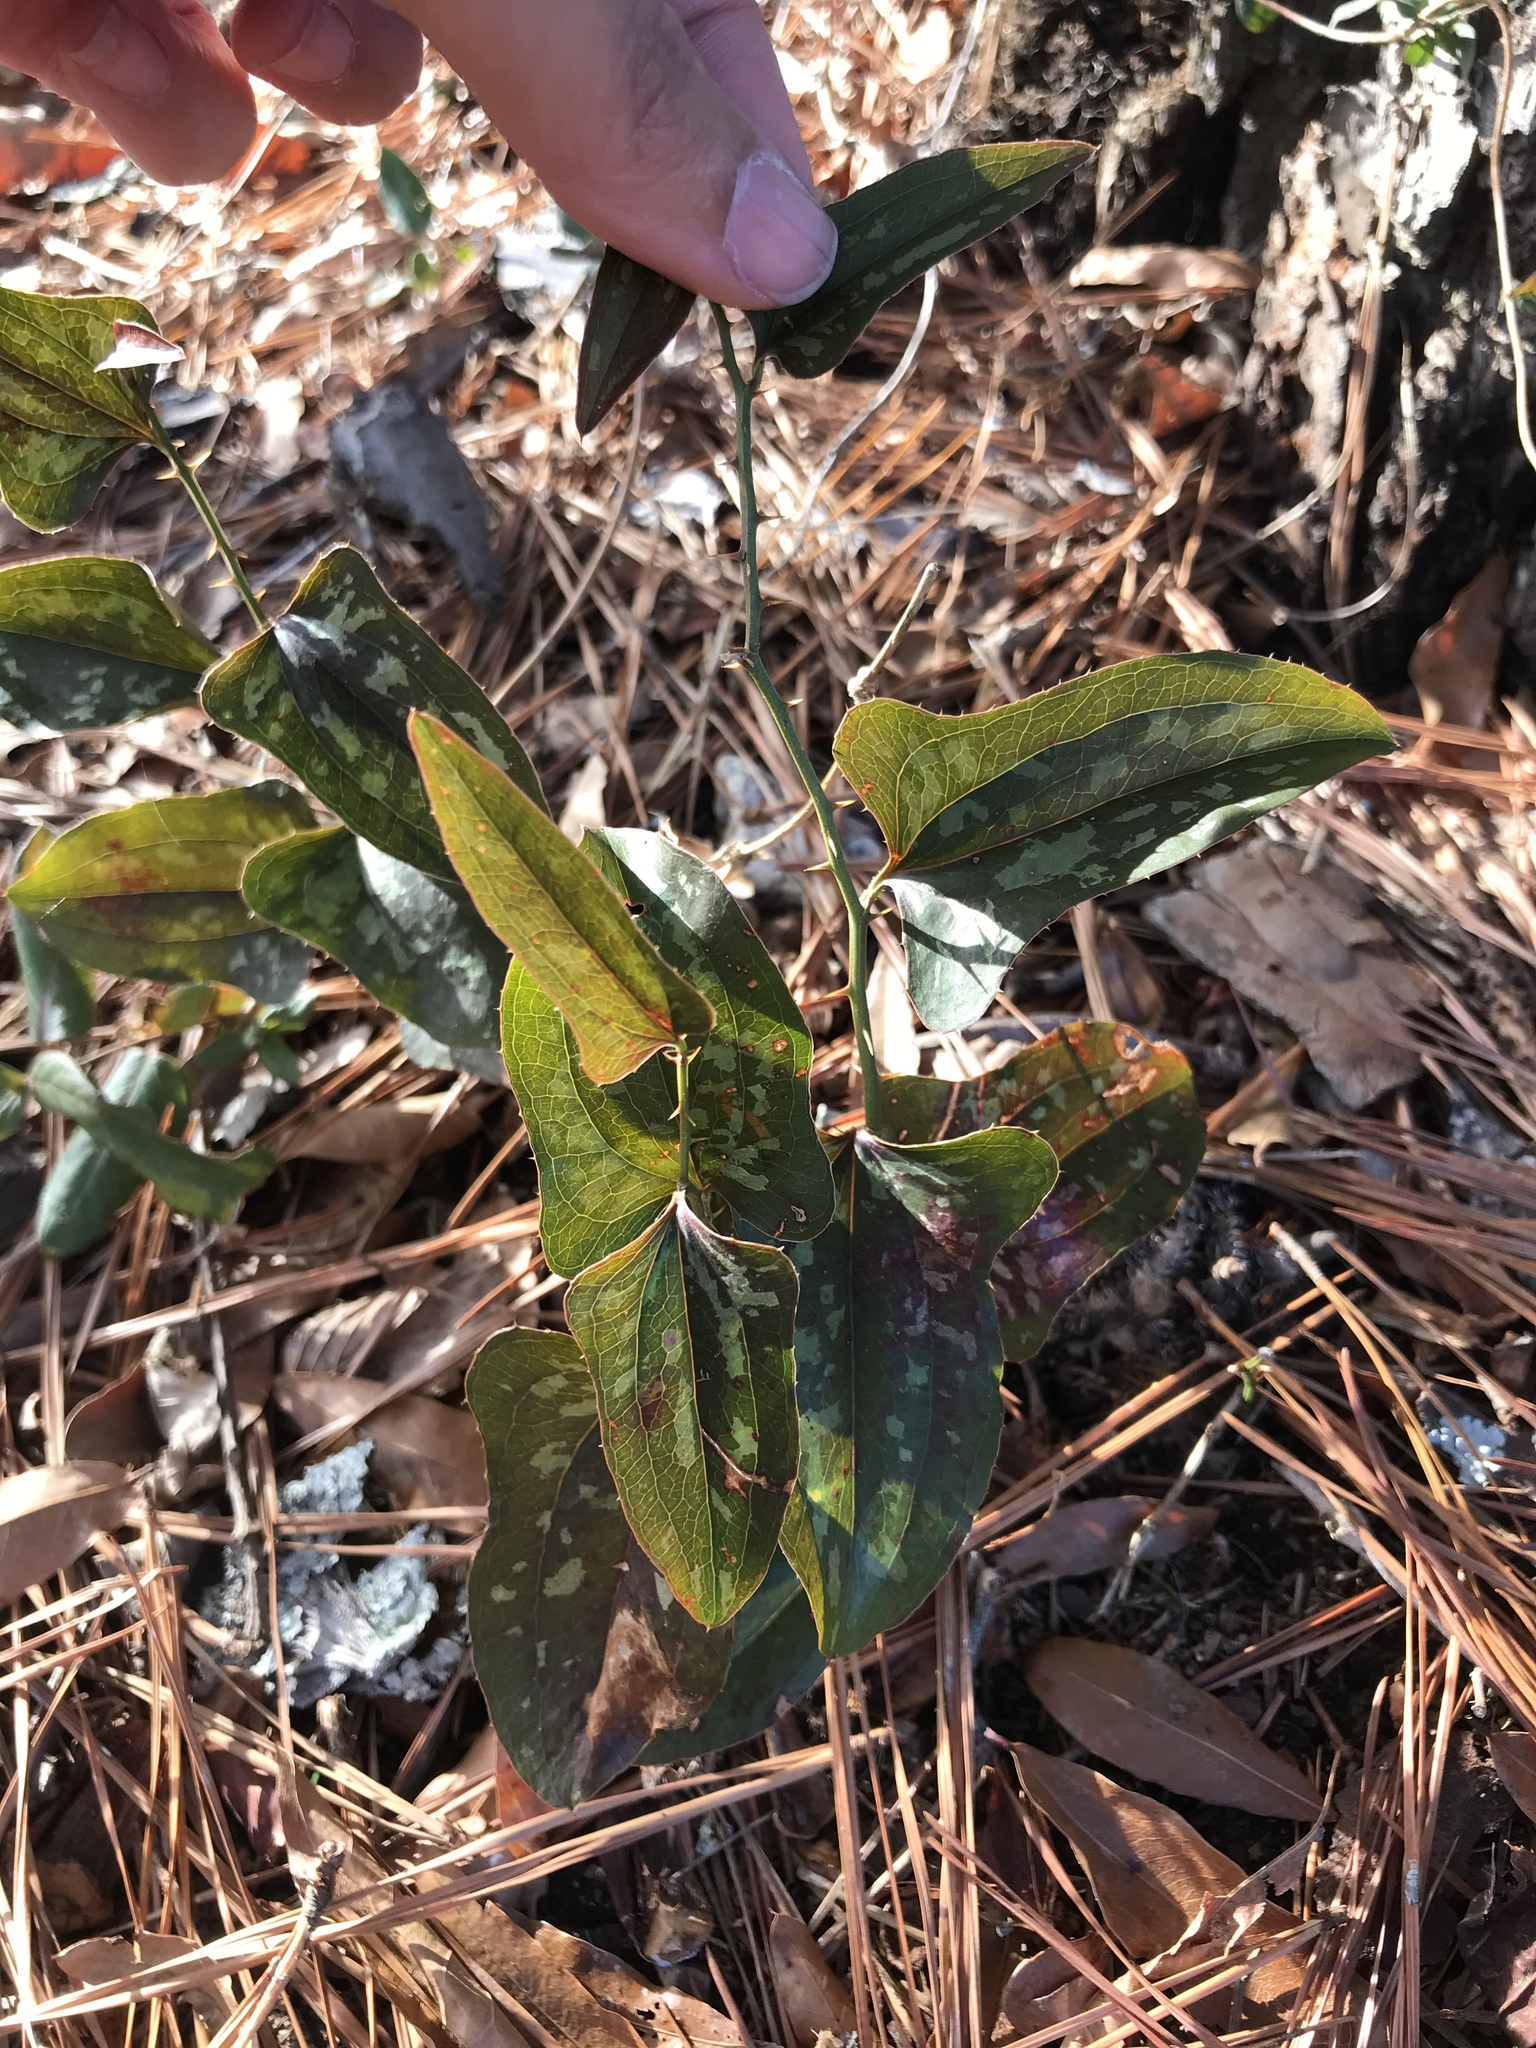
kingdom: Plantae
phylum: Tracheophyta
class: Liliopsida
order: Liliales
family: Smilacaceae
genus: Smilax
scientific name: Smilax bona-nox
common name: Catbrier
